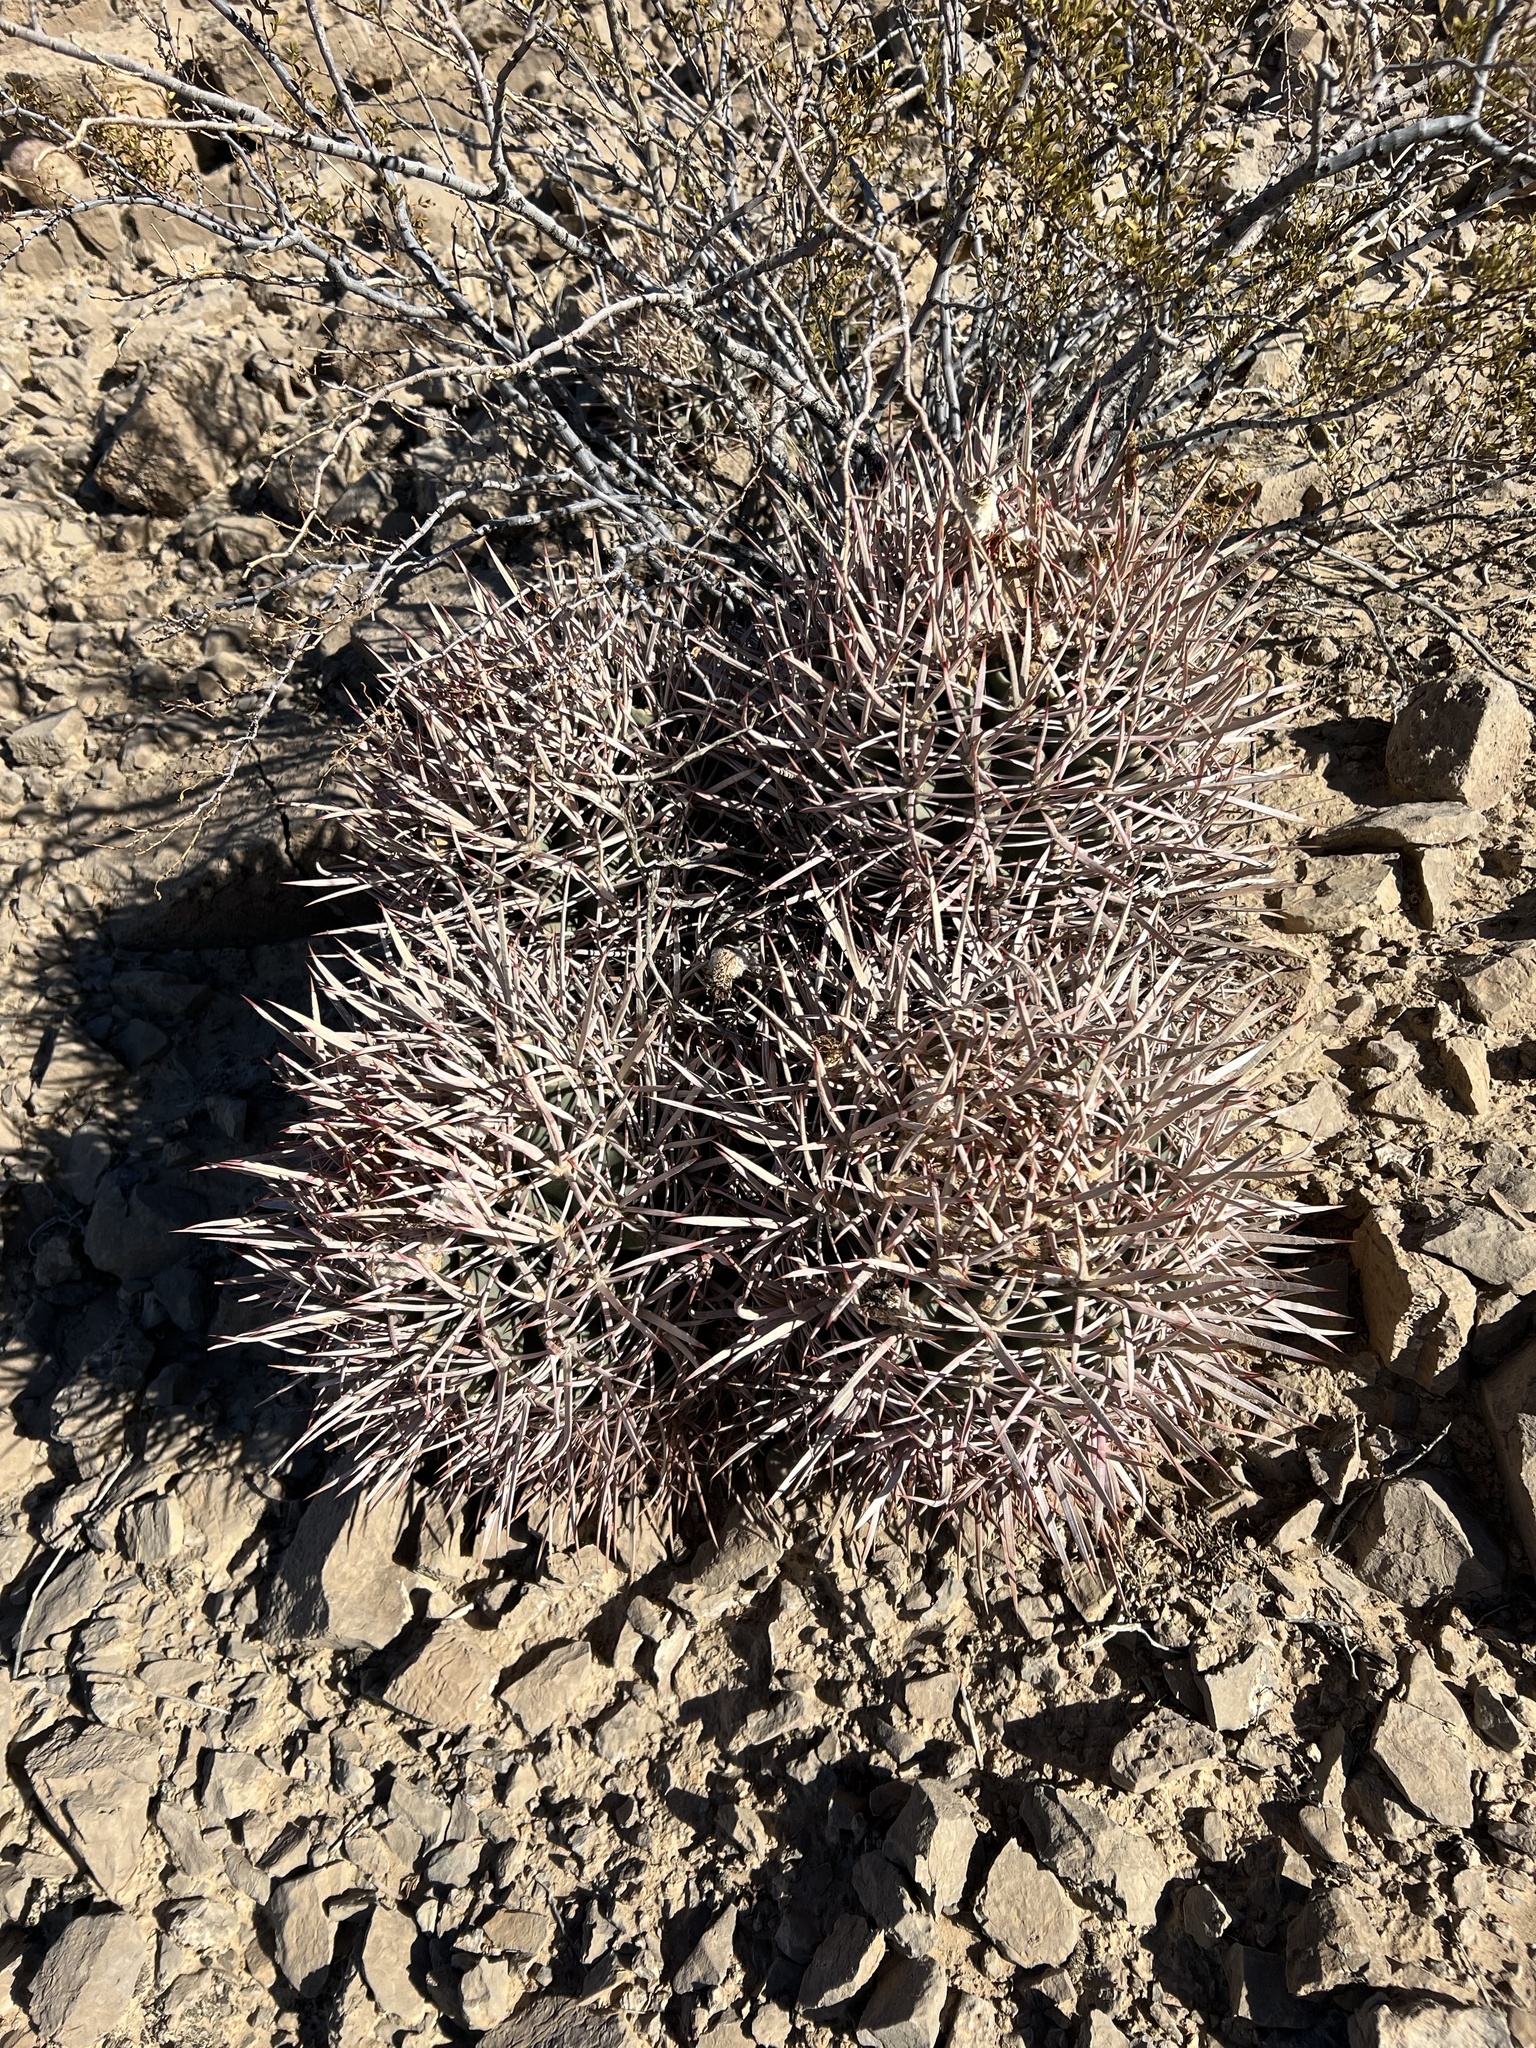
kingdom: Plantae
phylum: Tracheophyta
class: Magnoliopsida
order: Caryophyllales
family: Cactaceae
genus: Echinocactus
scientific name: Echinocactus polycephalus
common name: Cottontop cactus
